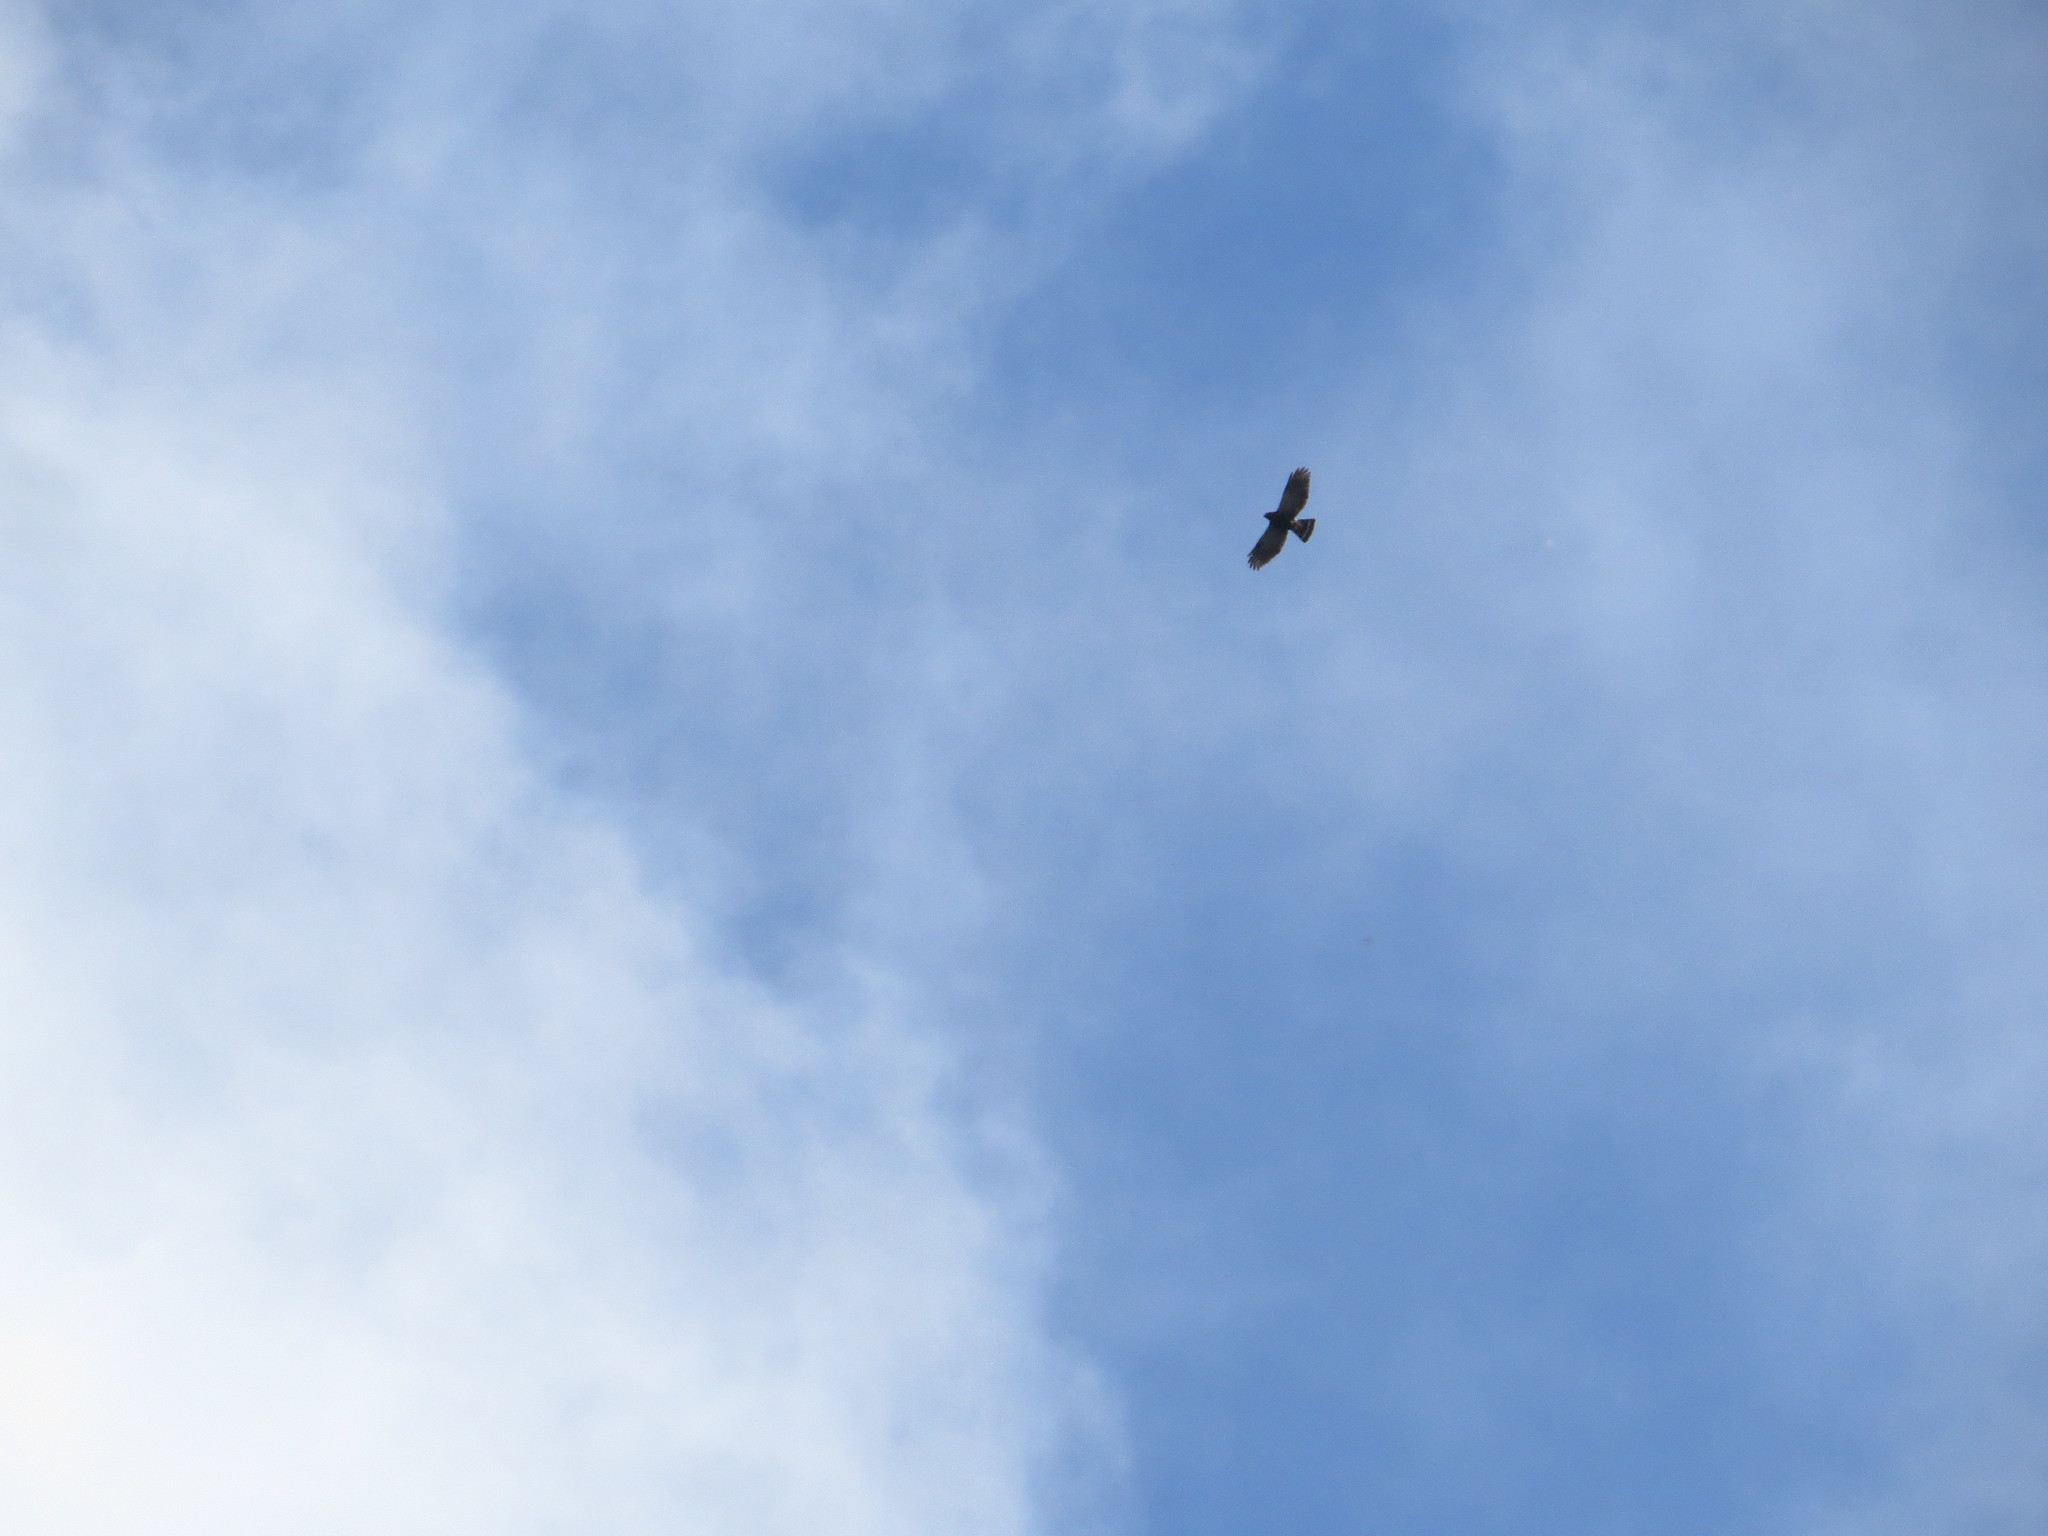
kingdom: Animalia
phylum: Chordata
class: Aves
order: Accipitriformes
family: Accipitridae
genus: Percnohierax
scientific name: Percnohierax leucorrhous
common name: White-rumped hawk
